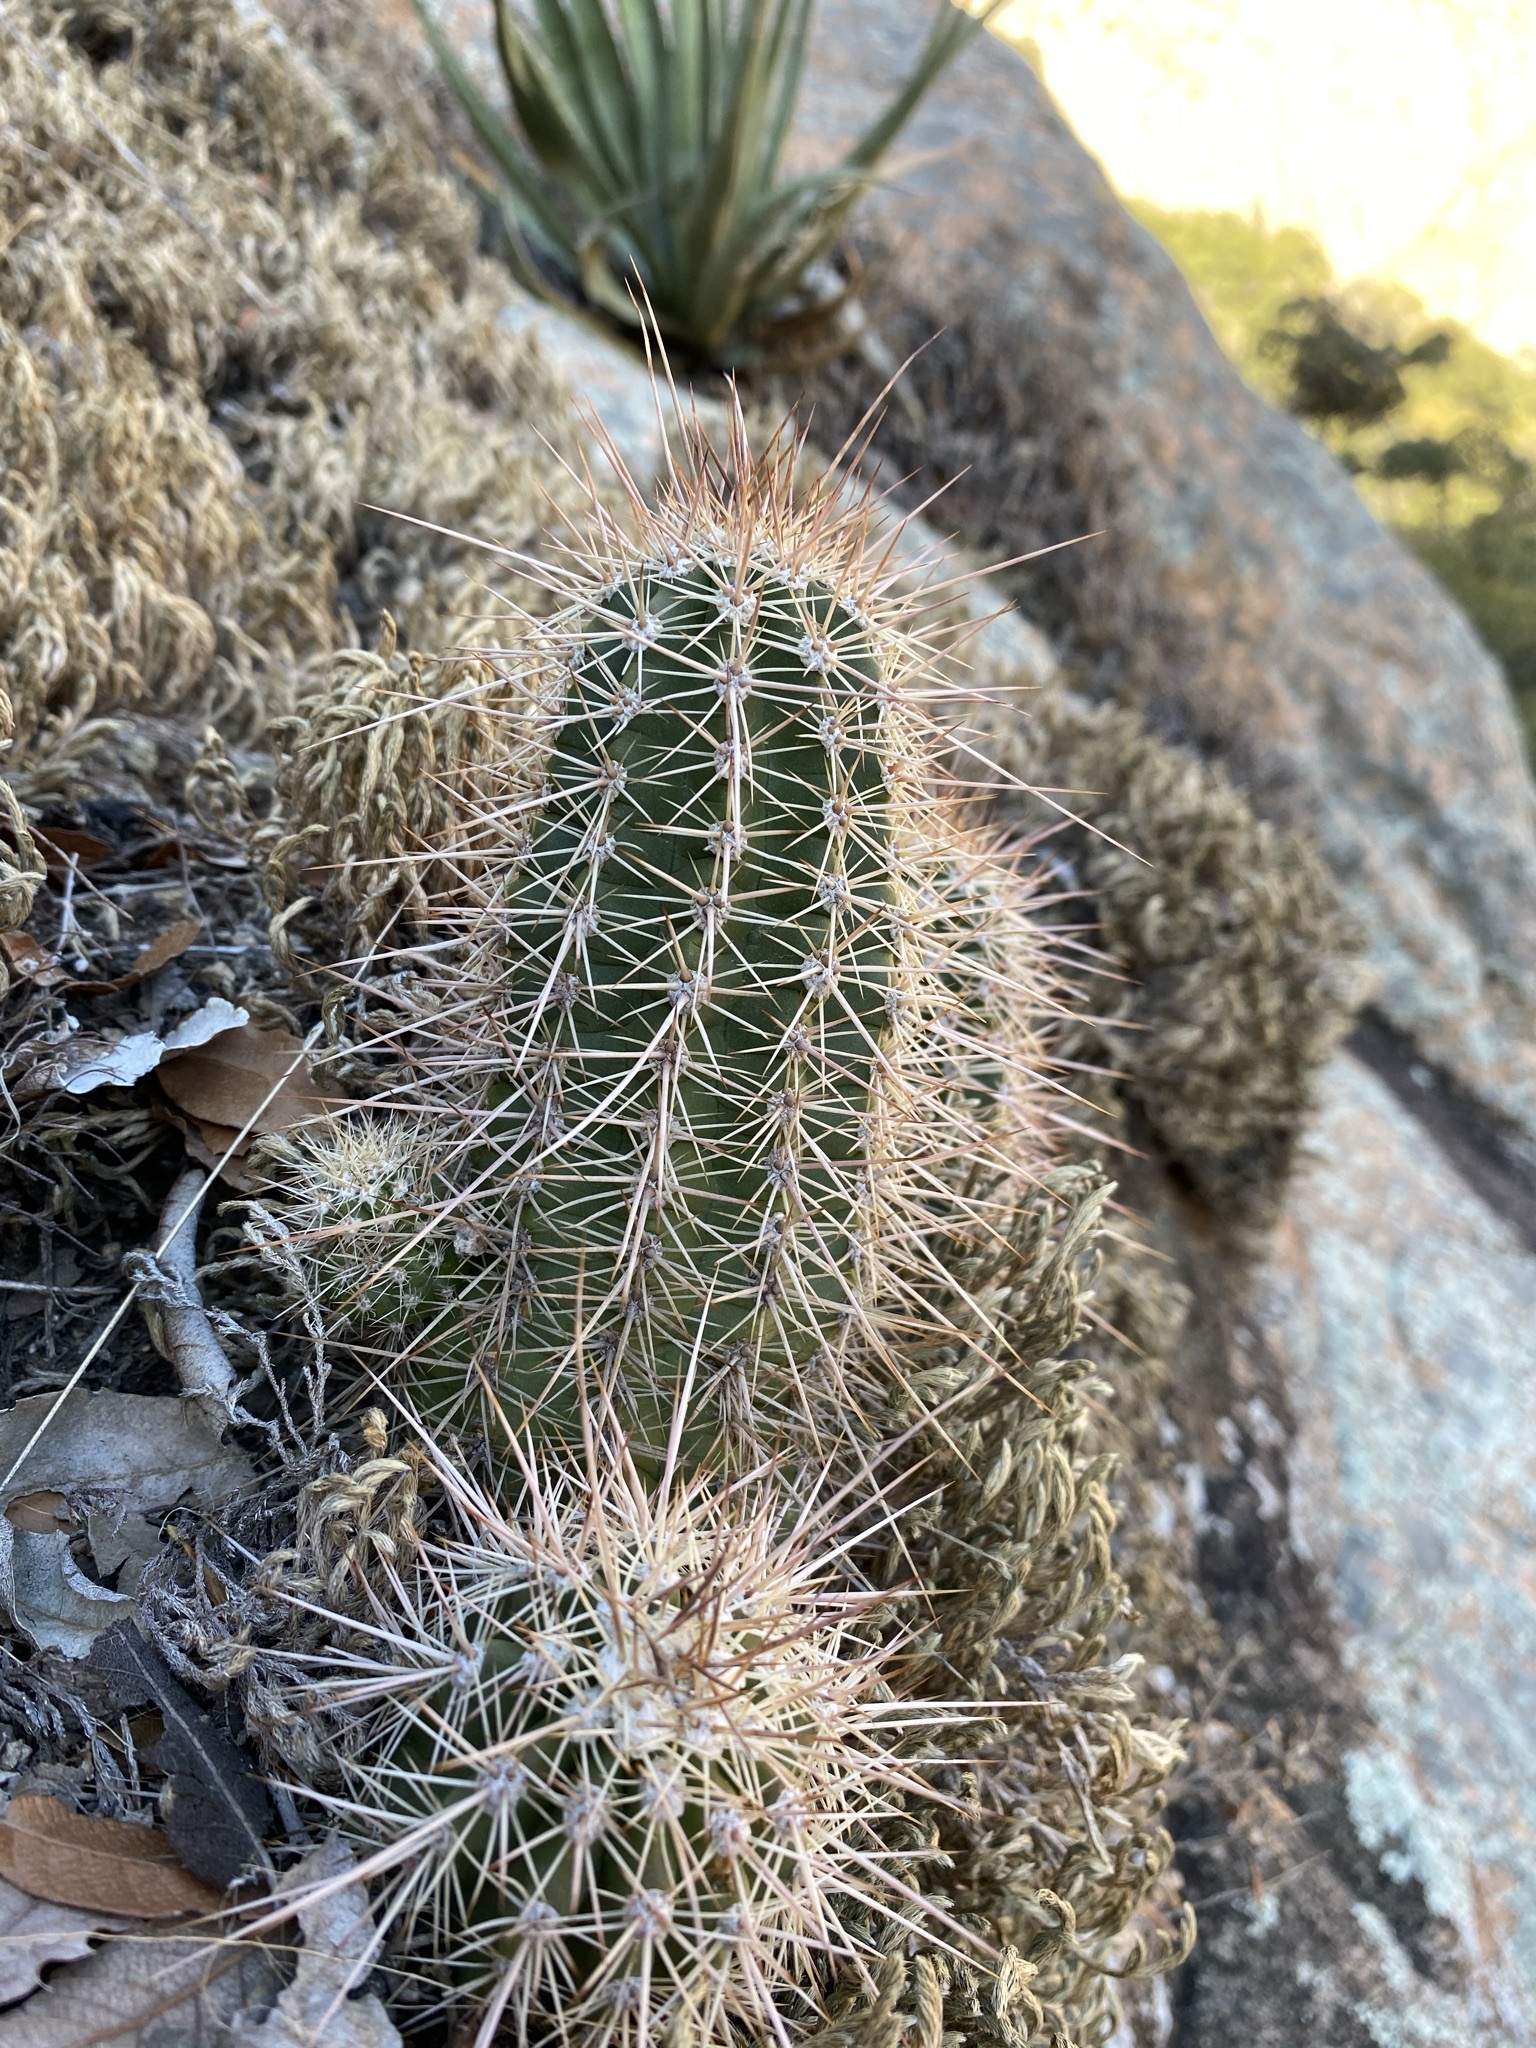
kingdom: Plantae
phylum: Tracheophyta
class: Magnoliopsida
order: Caryophyllales
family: Cactaceae
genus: Echinocereus
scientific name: Echinocereus arizonicus
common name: Arizona hedgehog cactus
